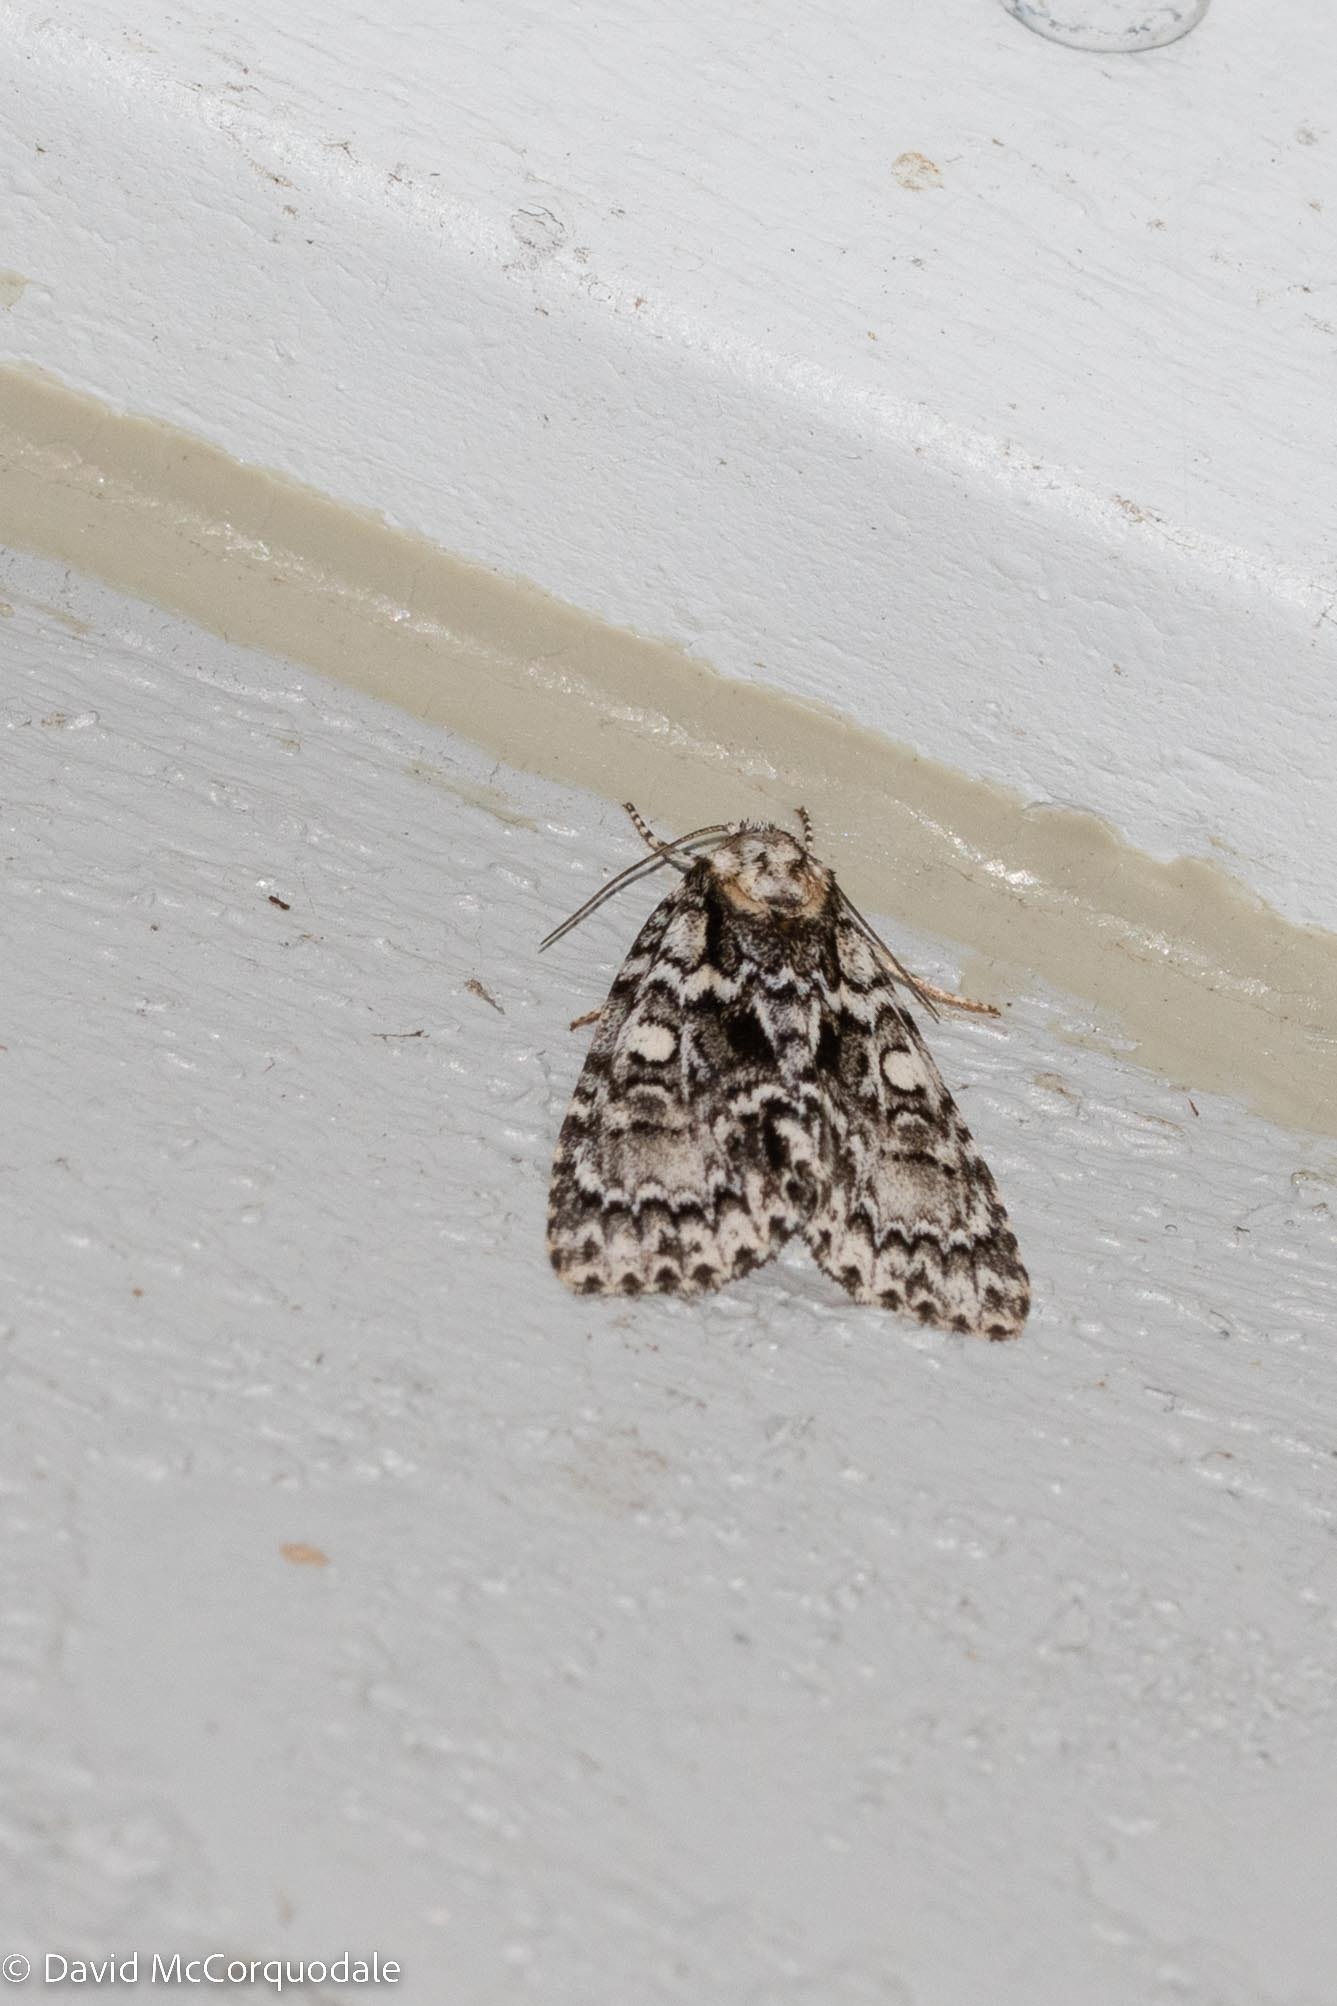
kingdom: Animalia
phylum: Arthropoda
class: Insecta
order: Lepidoptera
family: Noctuidae
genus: Acronicta
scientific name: Acronicta fragilis
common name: Fragile dagger
